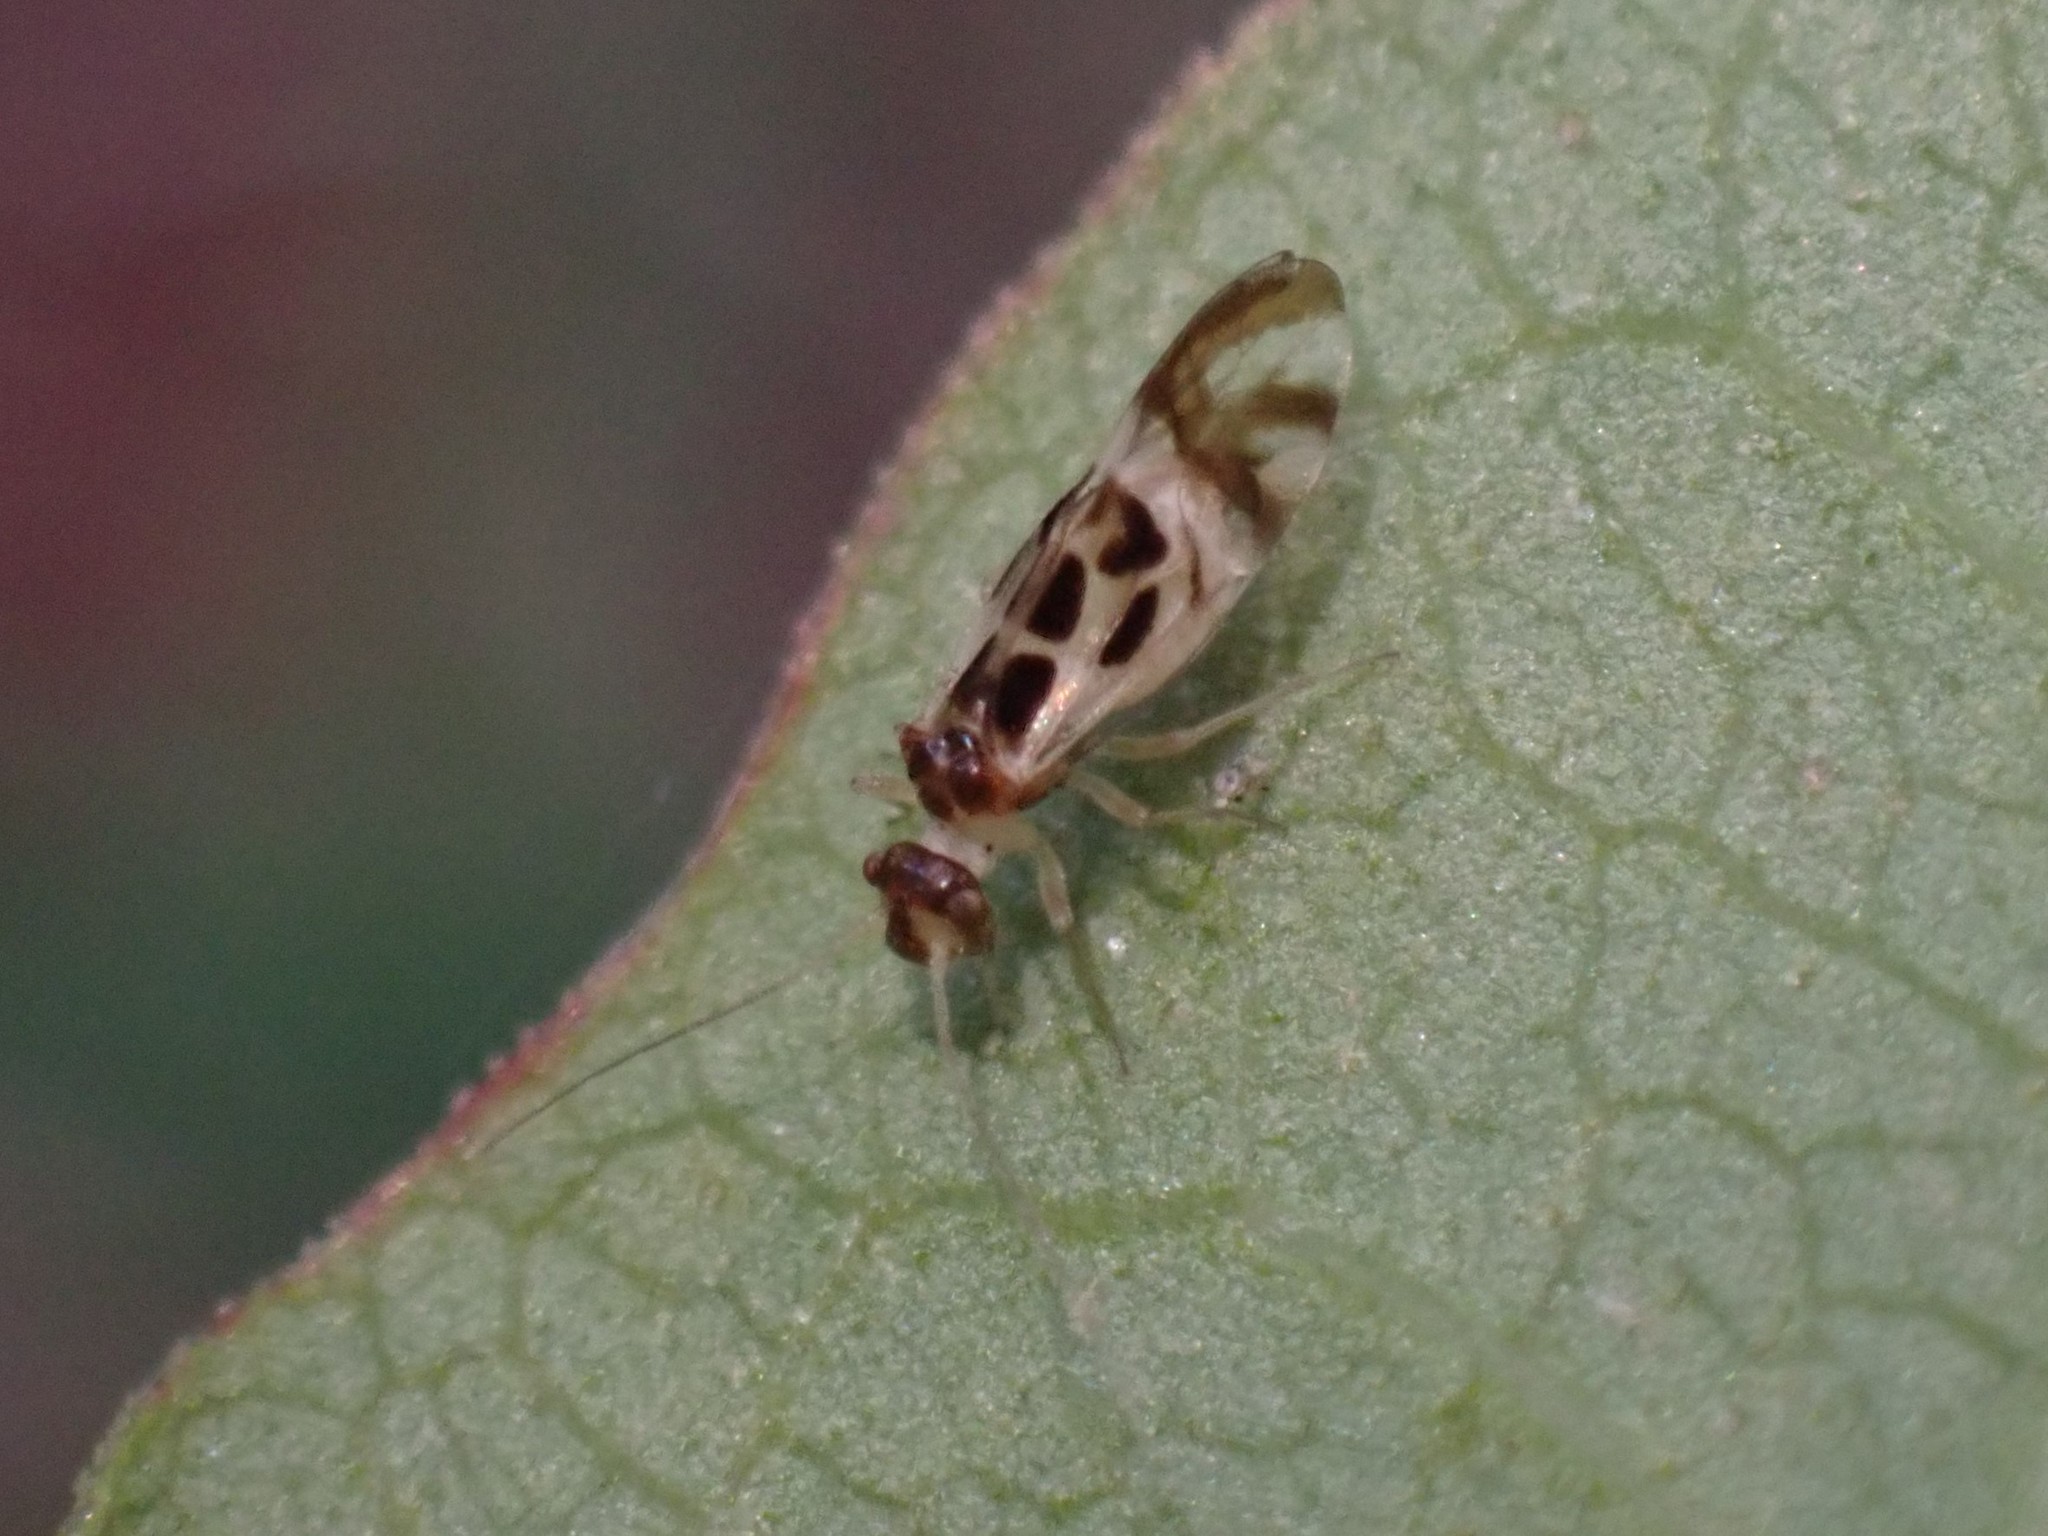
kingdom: Animalia
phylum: Arthropoda
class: Insecta
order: Psocodea
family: Stenopsocidae
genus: Graphopsocus
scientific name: Graphopsocus cruciatus
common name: Lizard bark louse
